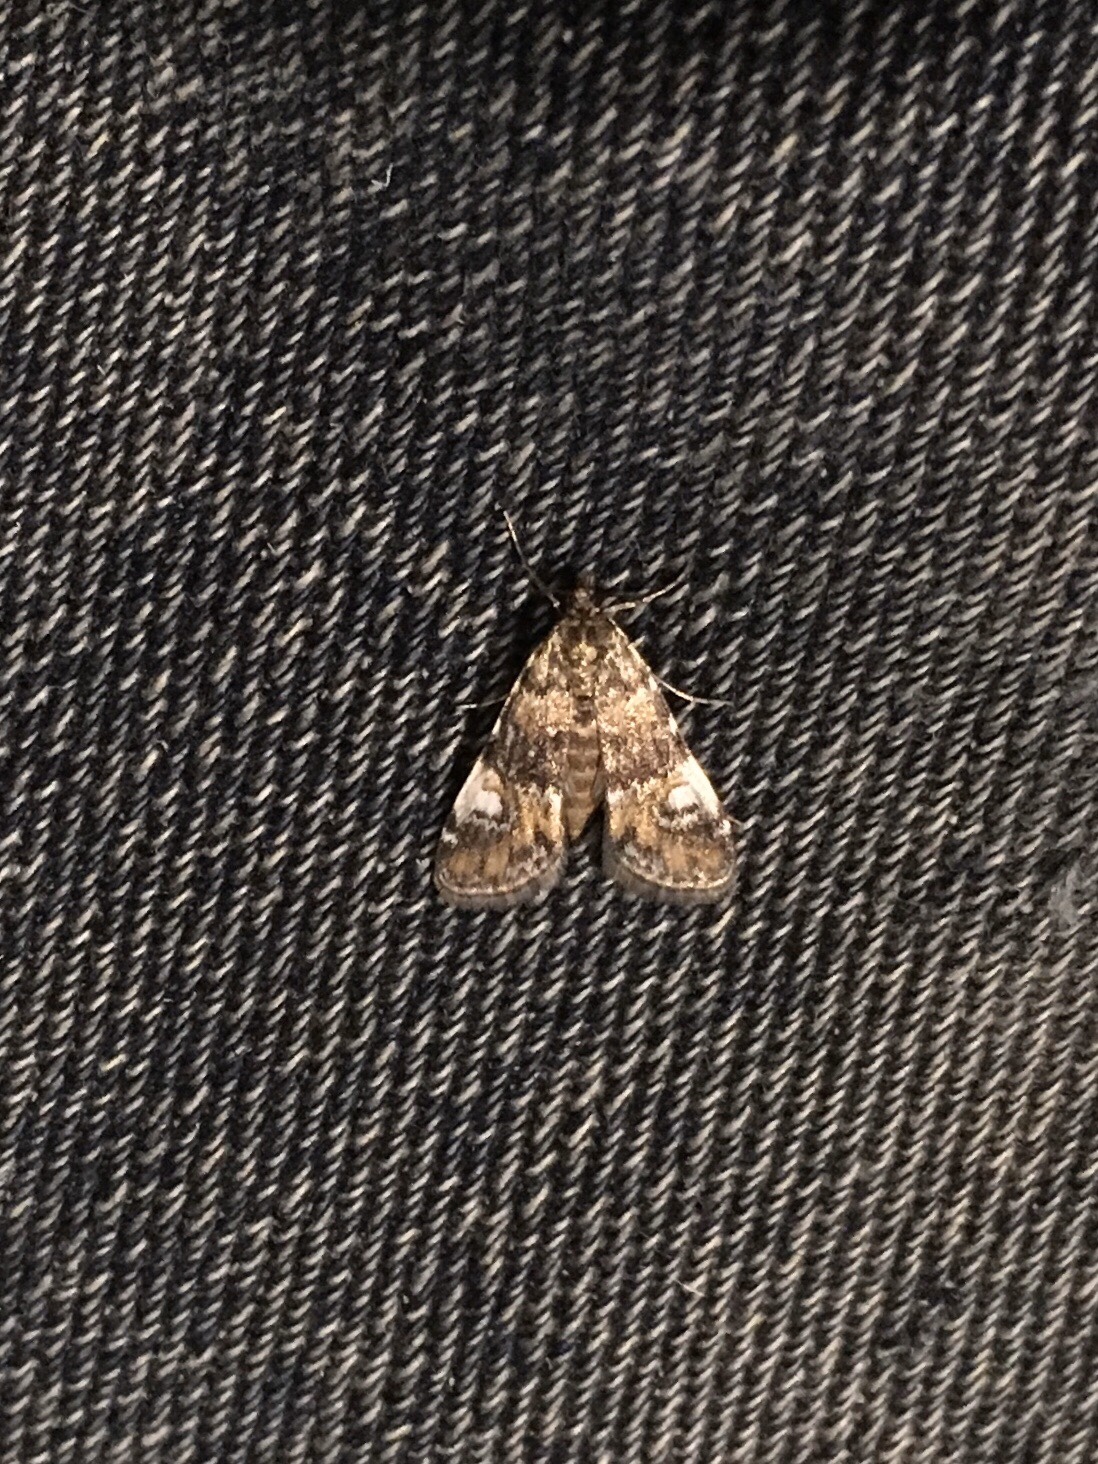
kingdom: Animalia
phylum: Arthropoda
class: Insecta
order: Lepidoptera
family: Crambidae
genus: Elophila
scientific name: Elophila obliteralis
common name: Waterlily leafcutter moth
